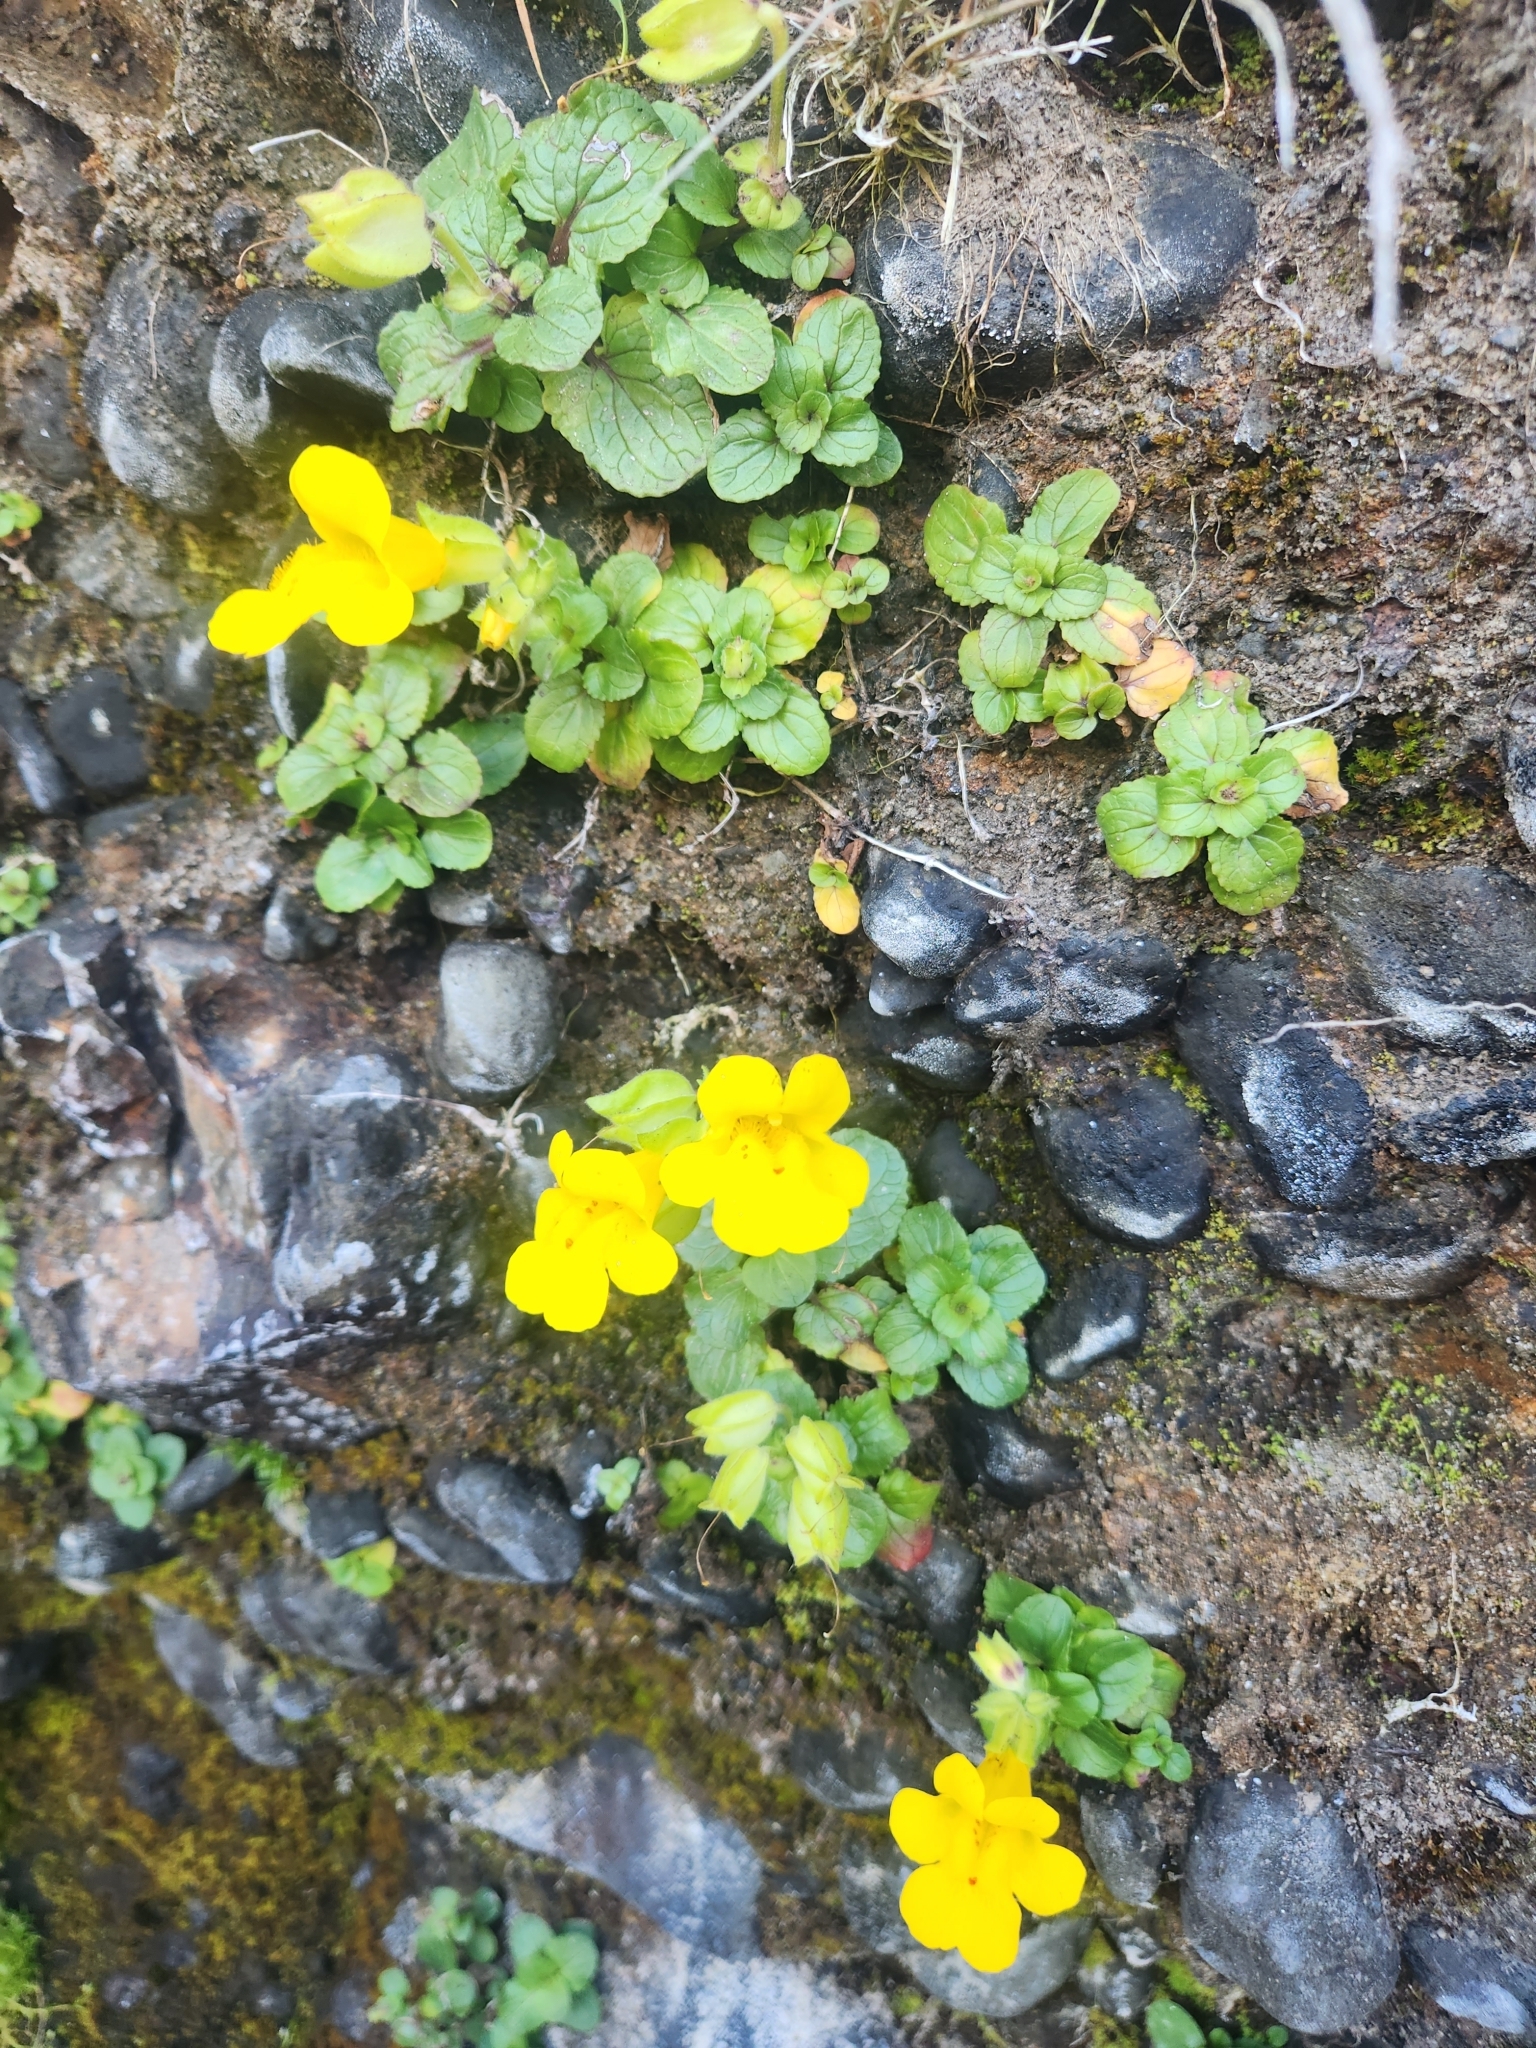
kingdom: Plantae
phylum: Tracheophyta
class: Magnoliopsida
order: Lamiales
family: Phrymaceae
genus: Erythranthe
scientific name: Erythranthe grandis
